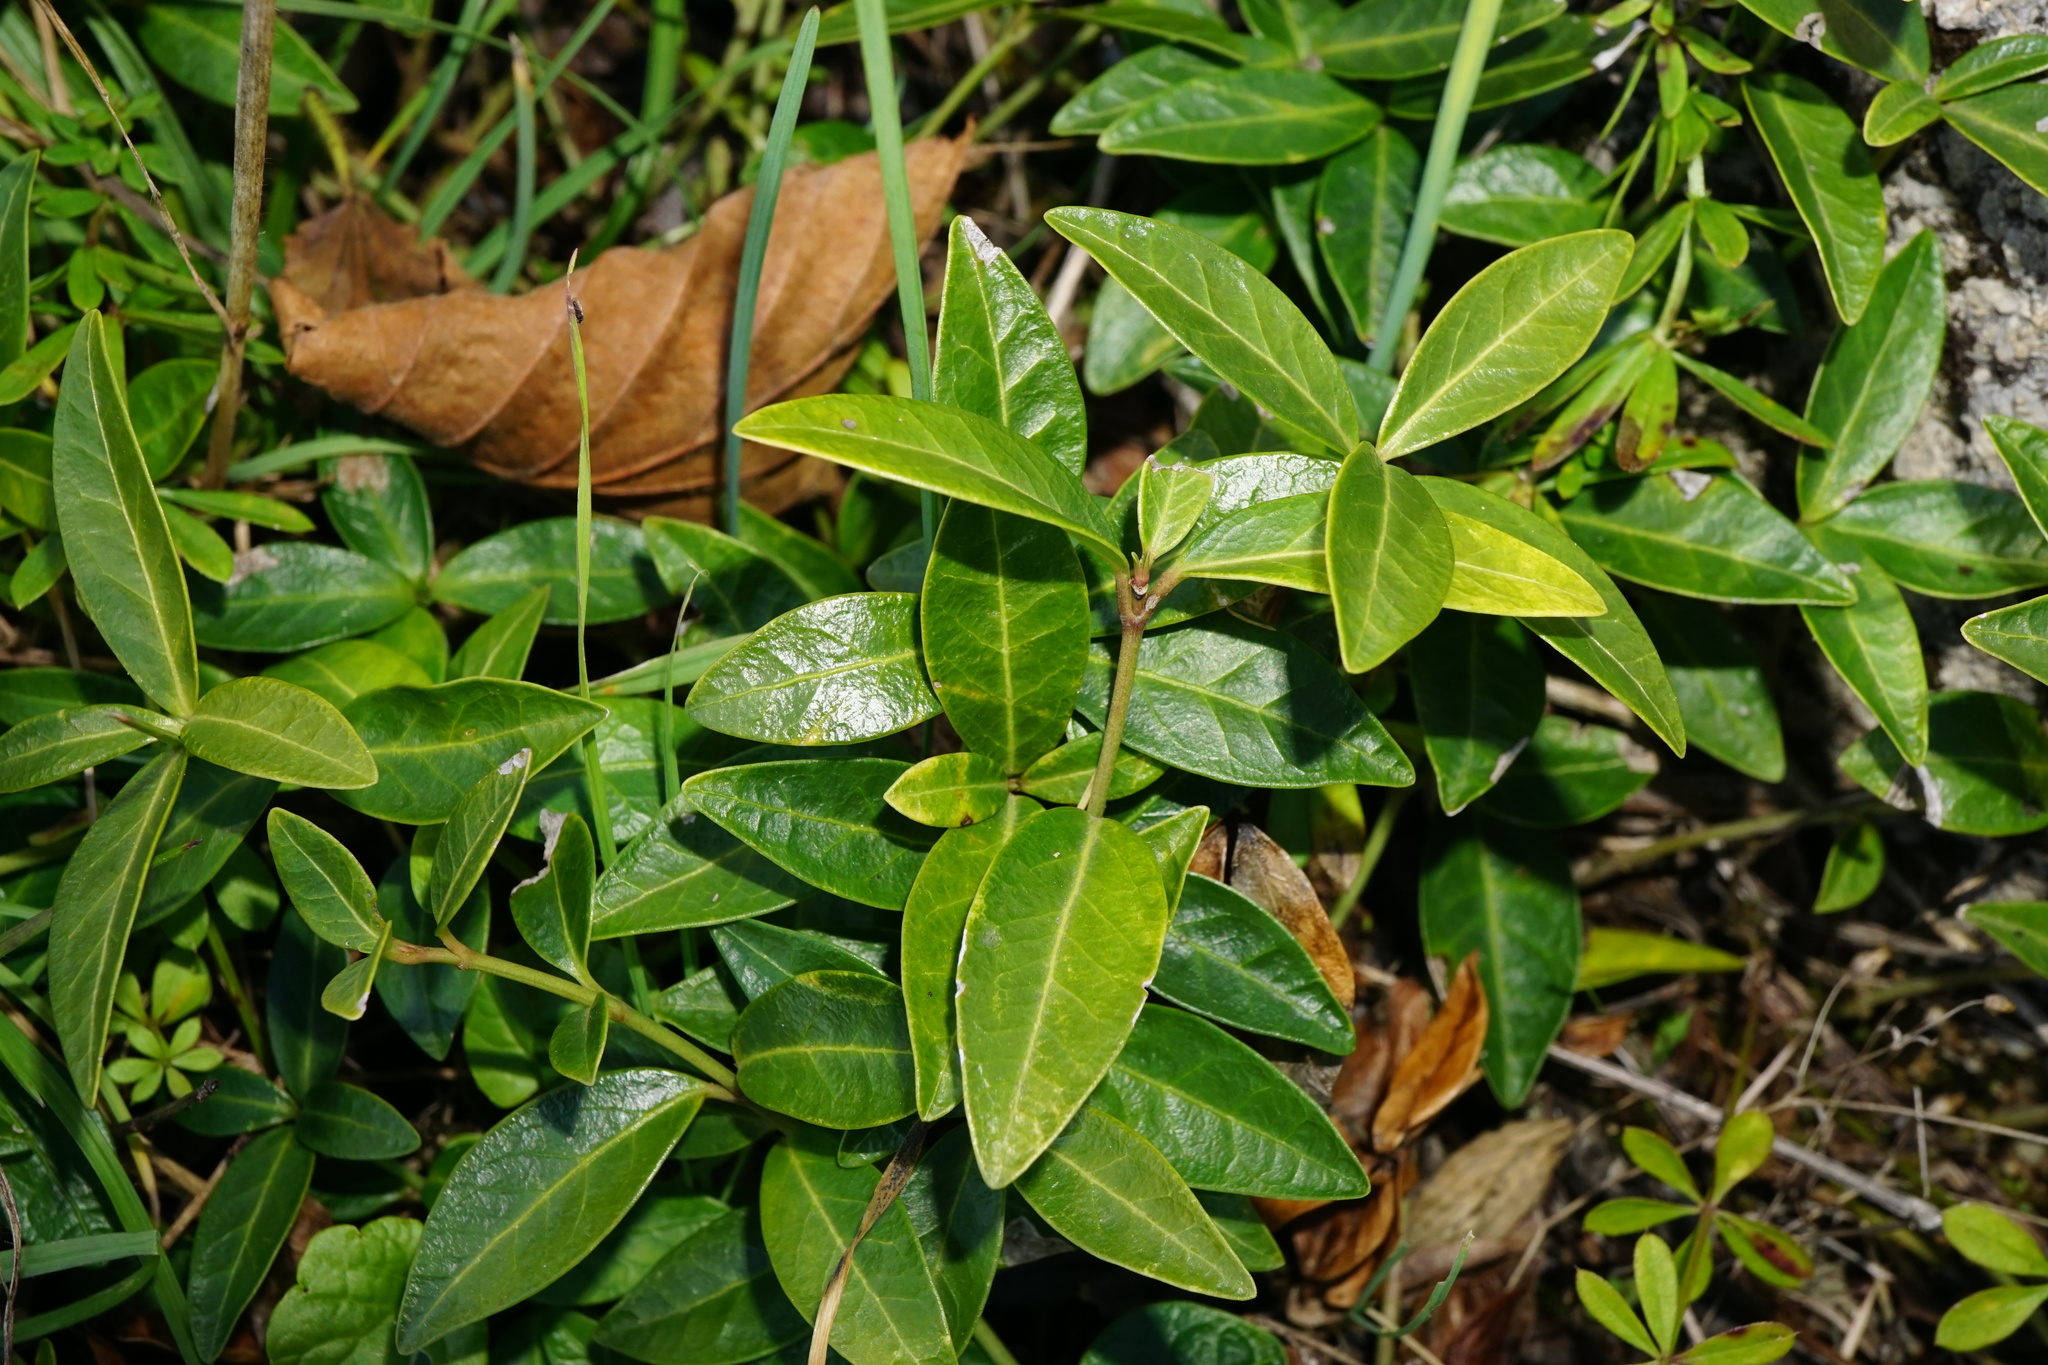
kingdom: Plantae
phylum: Tracheophyta
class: Magnoliopsida
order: Gentianales
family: Apocynaceae
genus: Vinca
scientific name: Vinca minor
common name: Lesser periwinkle
